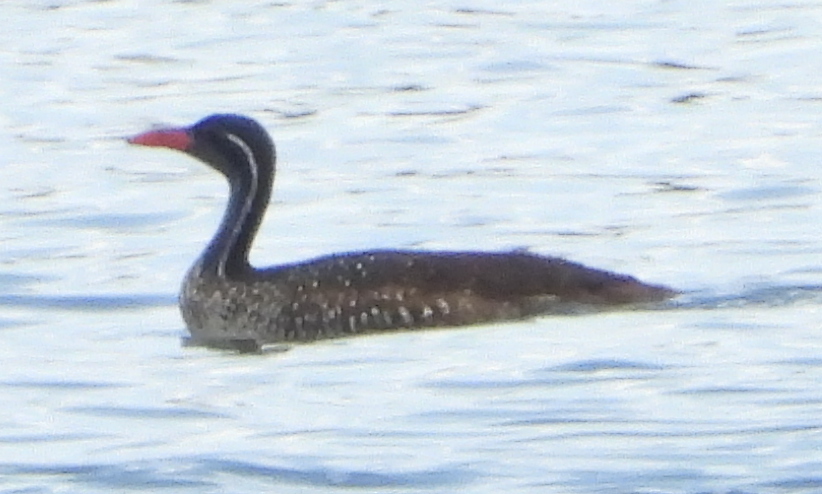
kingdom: Animalia
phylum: Chordata
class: Aves
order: Gruiformes
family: Heliornithidae
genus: Podica
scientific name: Podica senegalensis
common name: African finfoot
